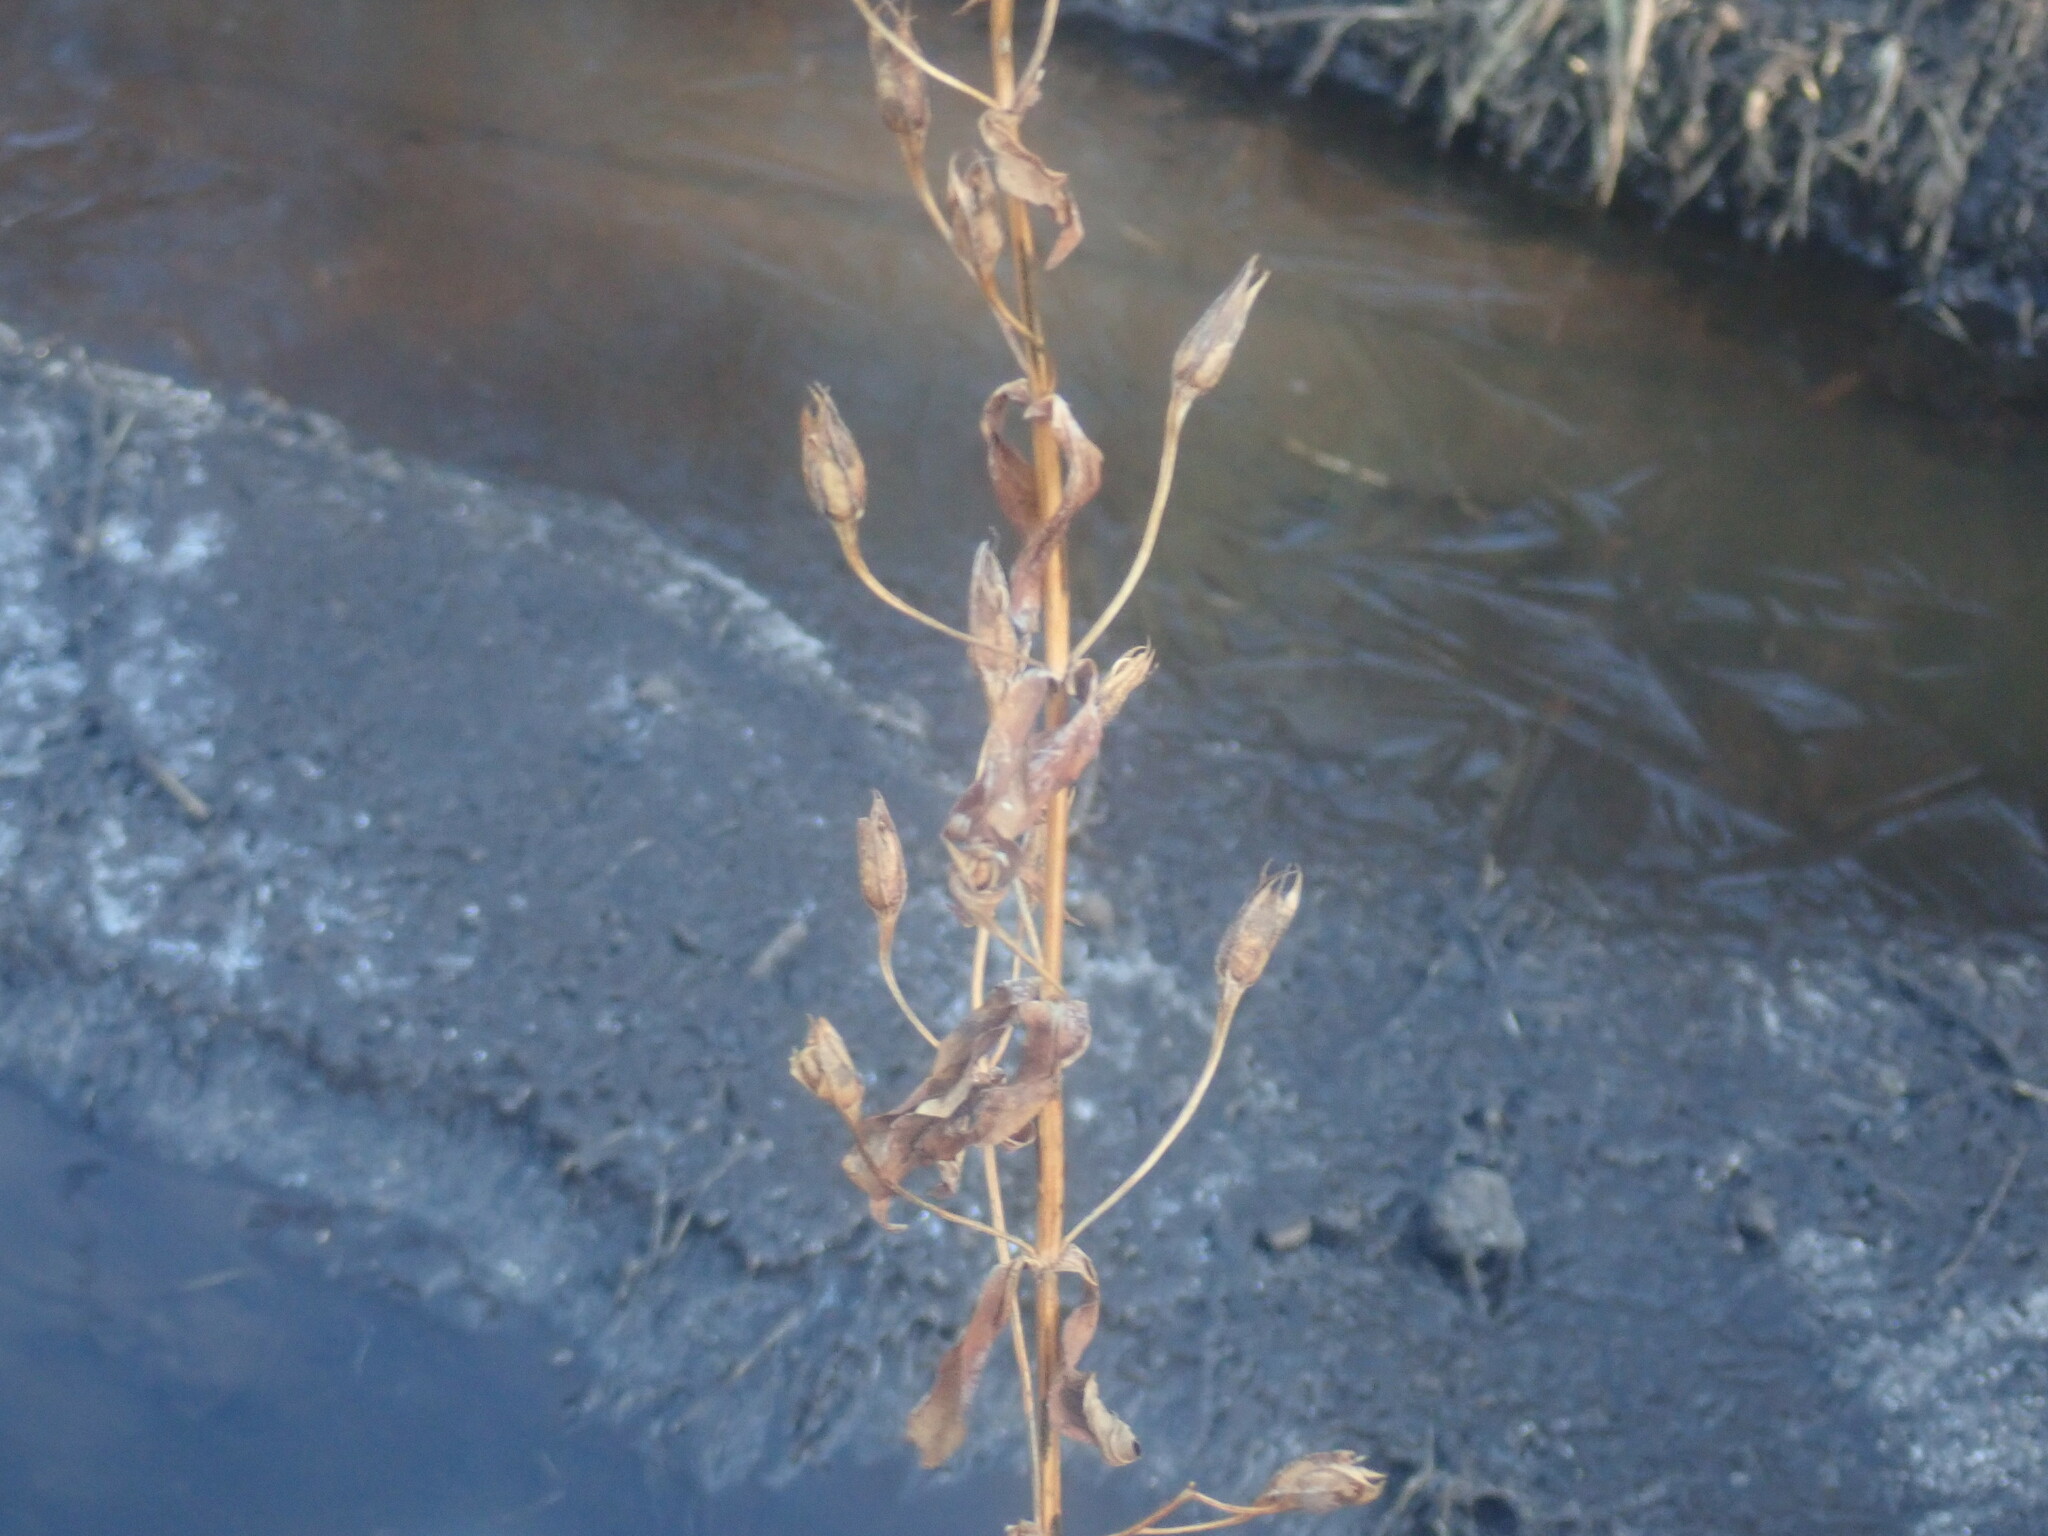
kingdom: Plantae
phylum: Tracheophyta
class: Magnoliopsida
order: Lamiales
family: Phrymaceae
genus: Mimulus
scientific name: Mimulus ringens
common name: Allegheny monkeyflower
